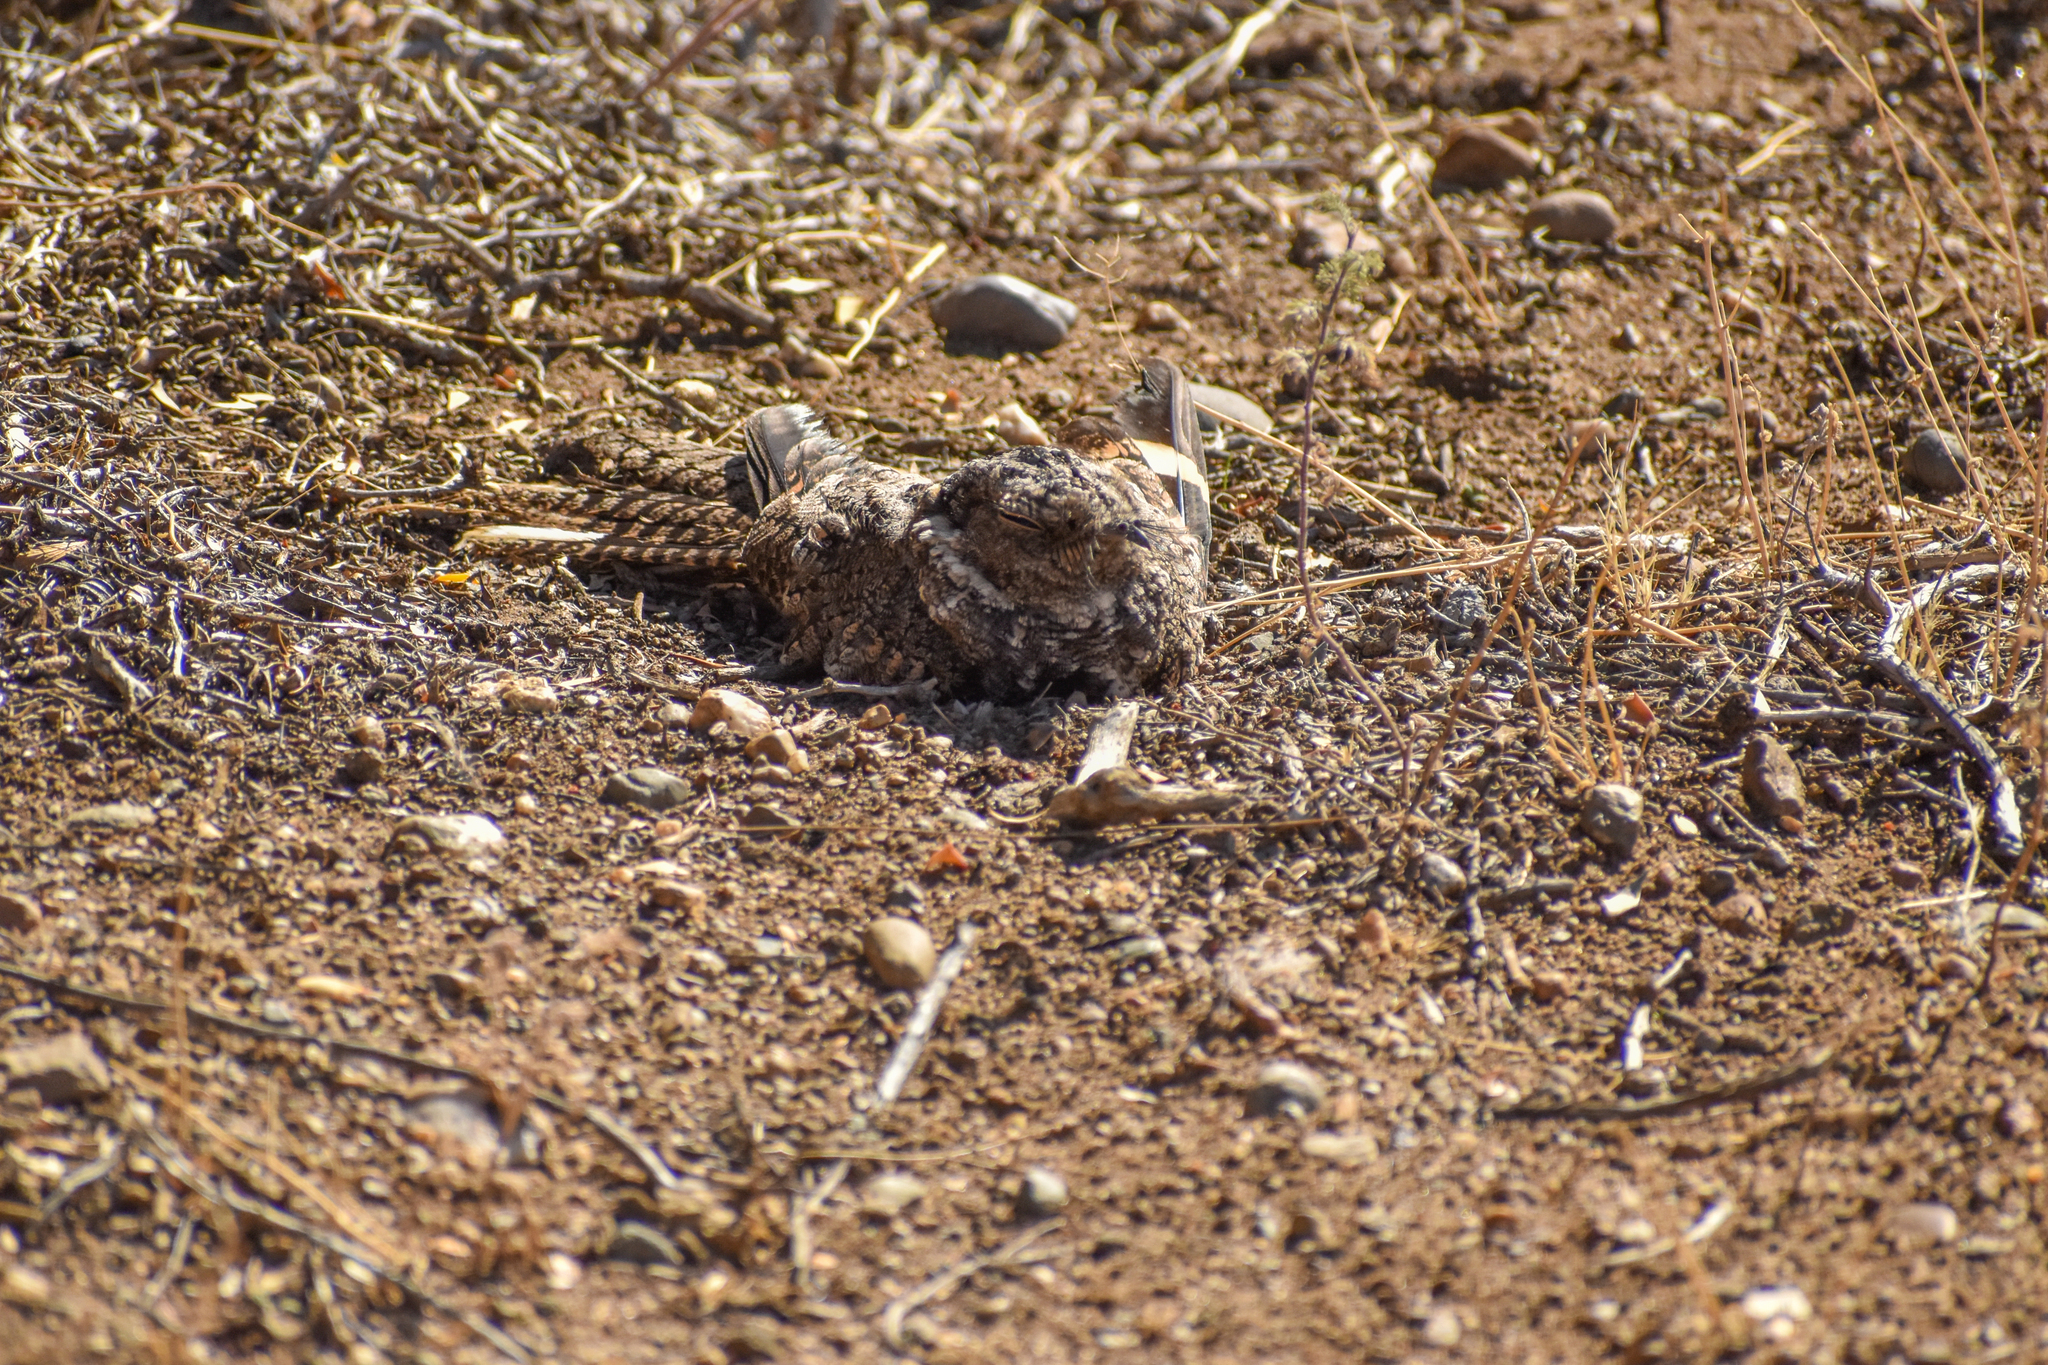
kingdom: Animalia
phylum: Chordata
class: Aves
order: Caprimulgiformes
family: Caprimulgidae
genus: Systellura
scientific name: Systellura longirostris
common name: Band-winged nightjar
